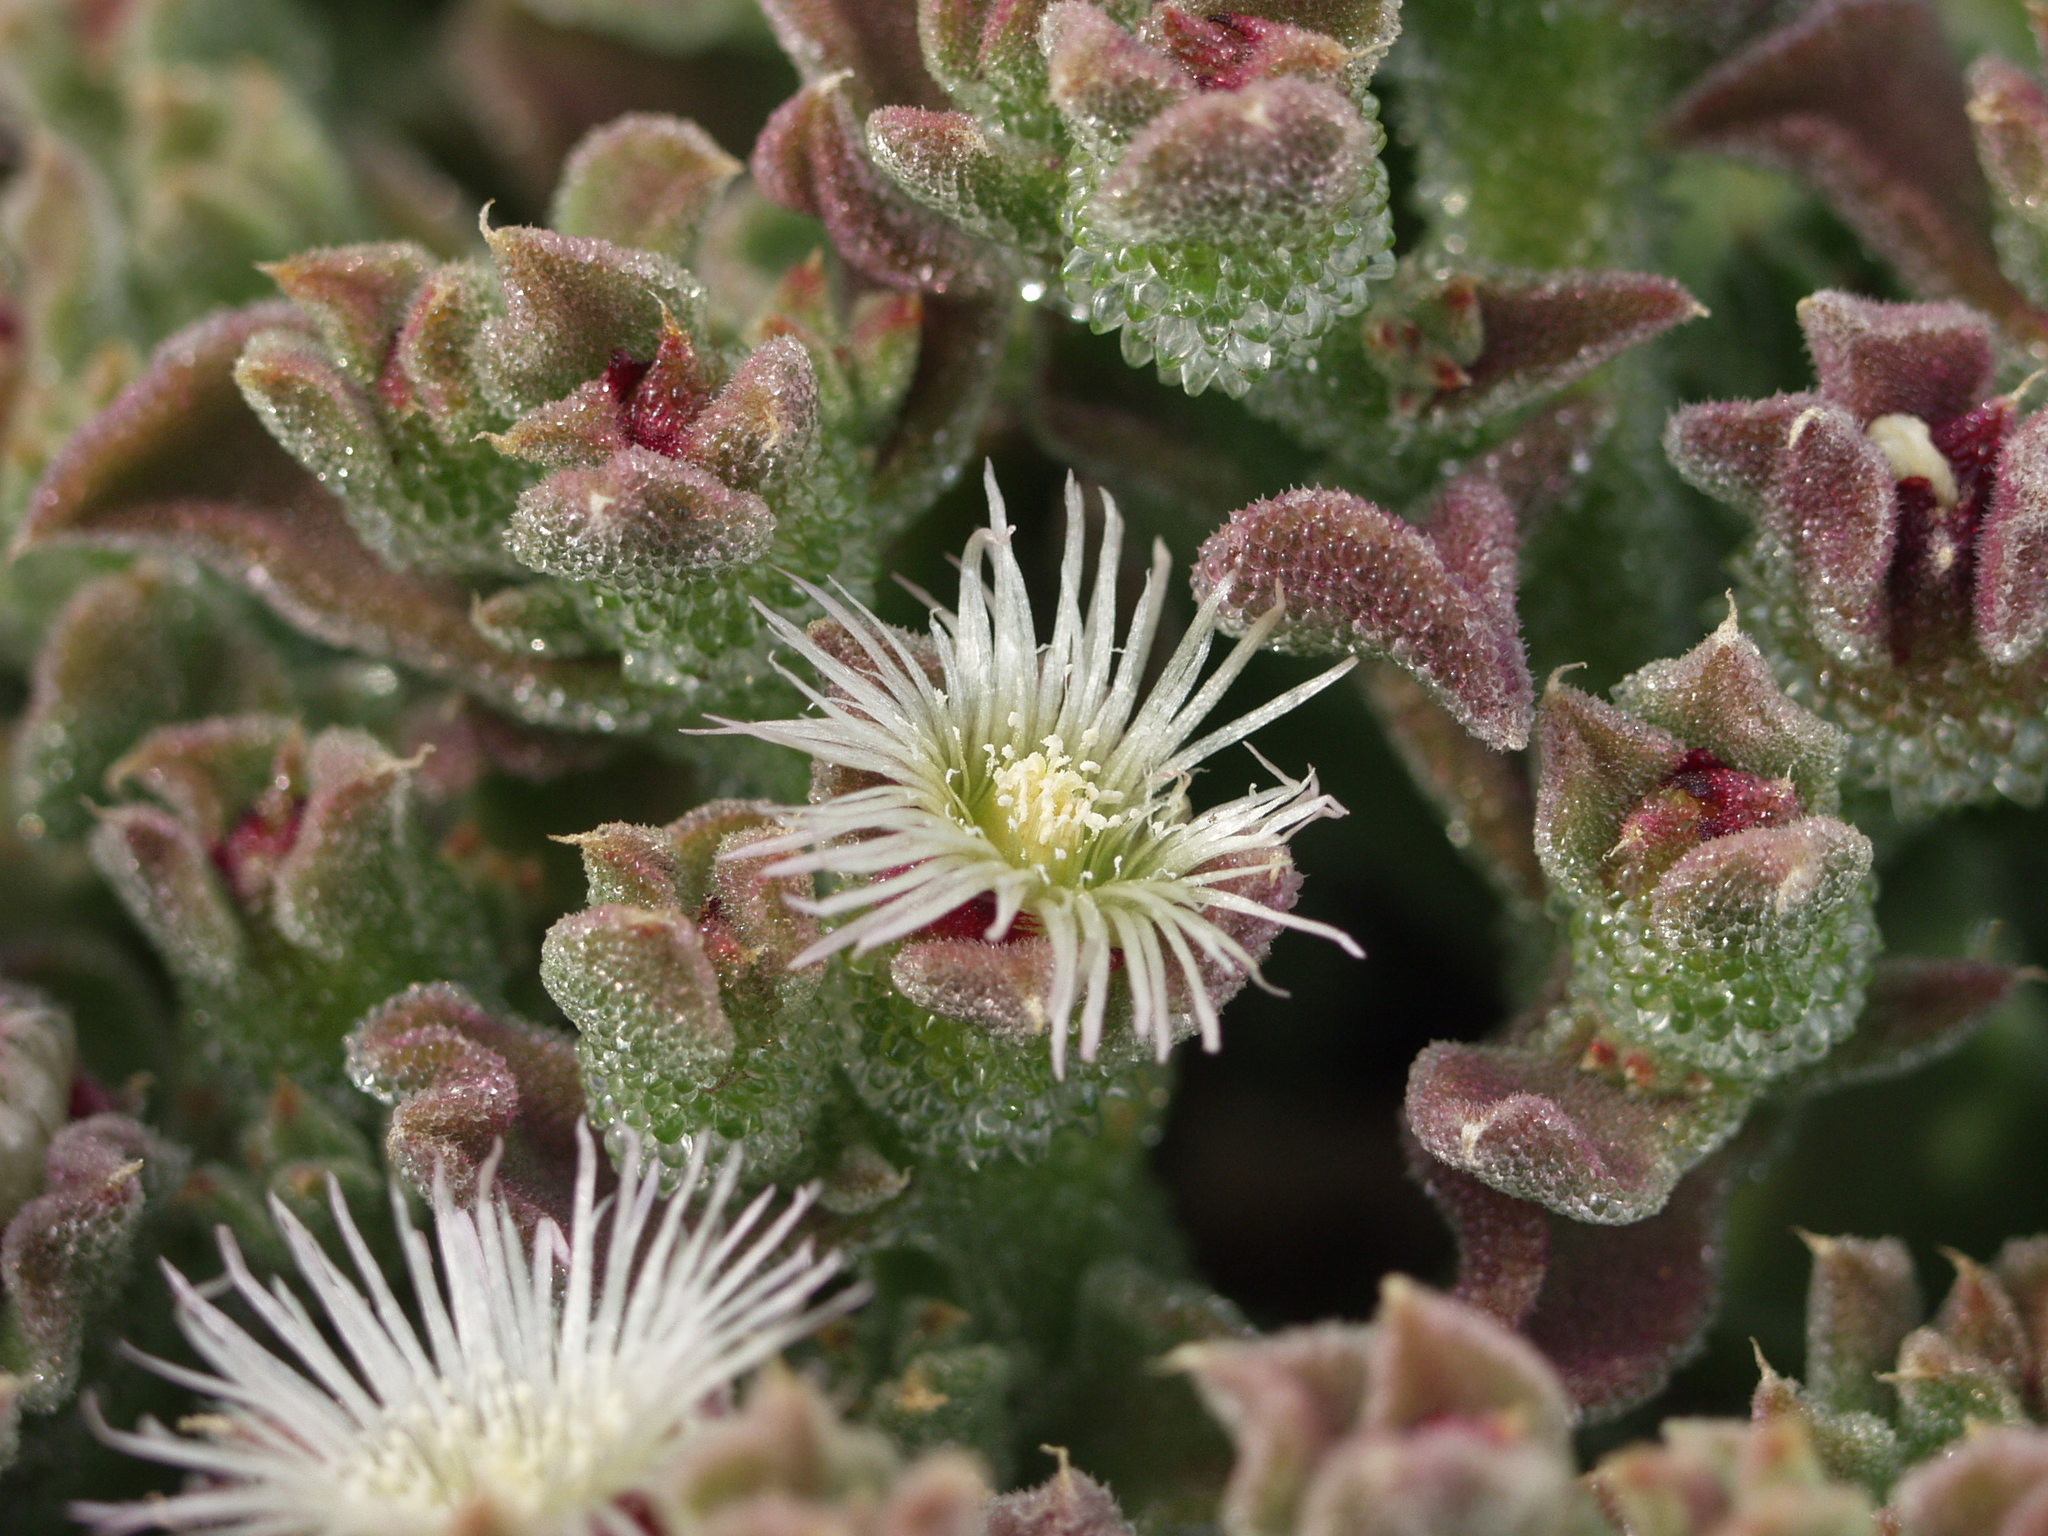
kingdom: Plantae
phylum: Tracheophyta
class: Magnoliopsida
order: Caryophyllales
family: Aizoaceae
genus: Mesembryanthemum
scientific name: Mesembryanthemum crystallinum
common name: Common iceplant
